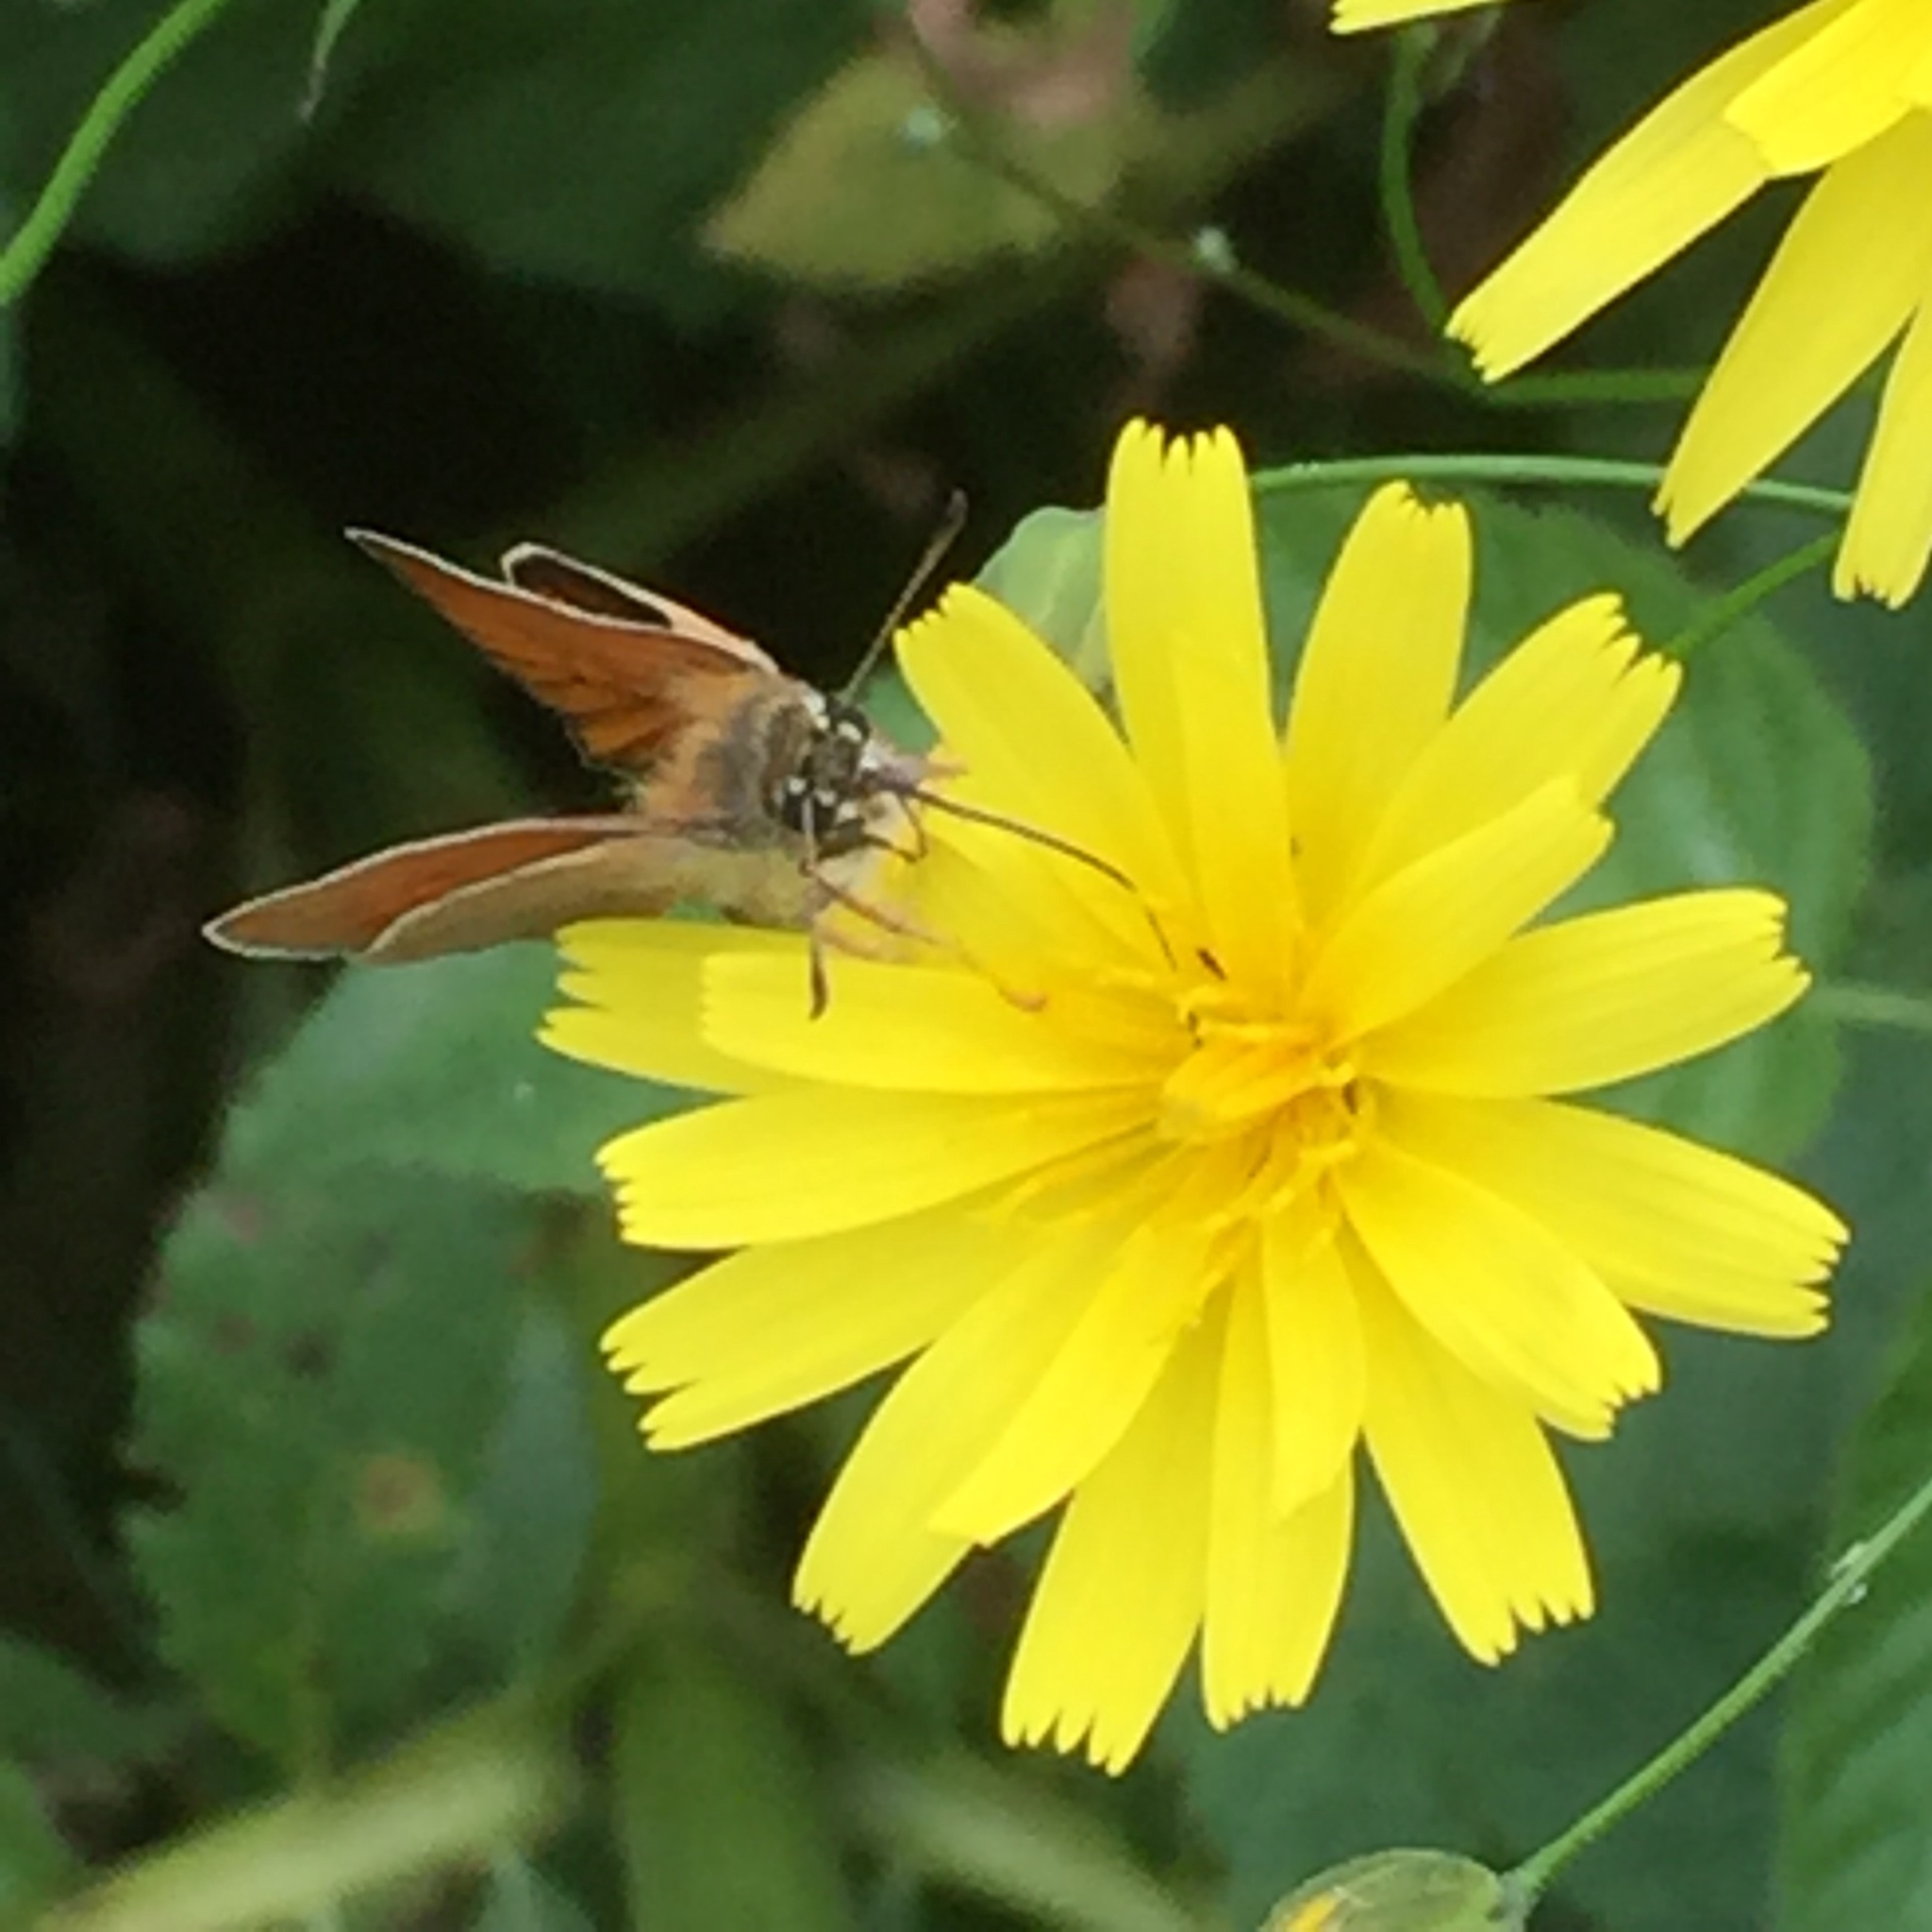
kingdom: Plantae
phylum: Tracheophyta
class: Magnoliopsida
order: Asterales
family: Asteraceae
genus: Lactuca
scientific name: Lactuca serriola
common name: Prickly lettuce
